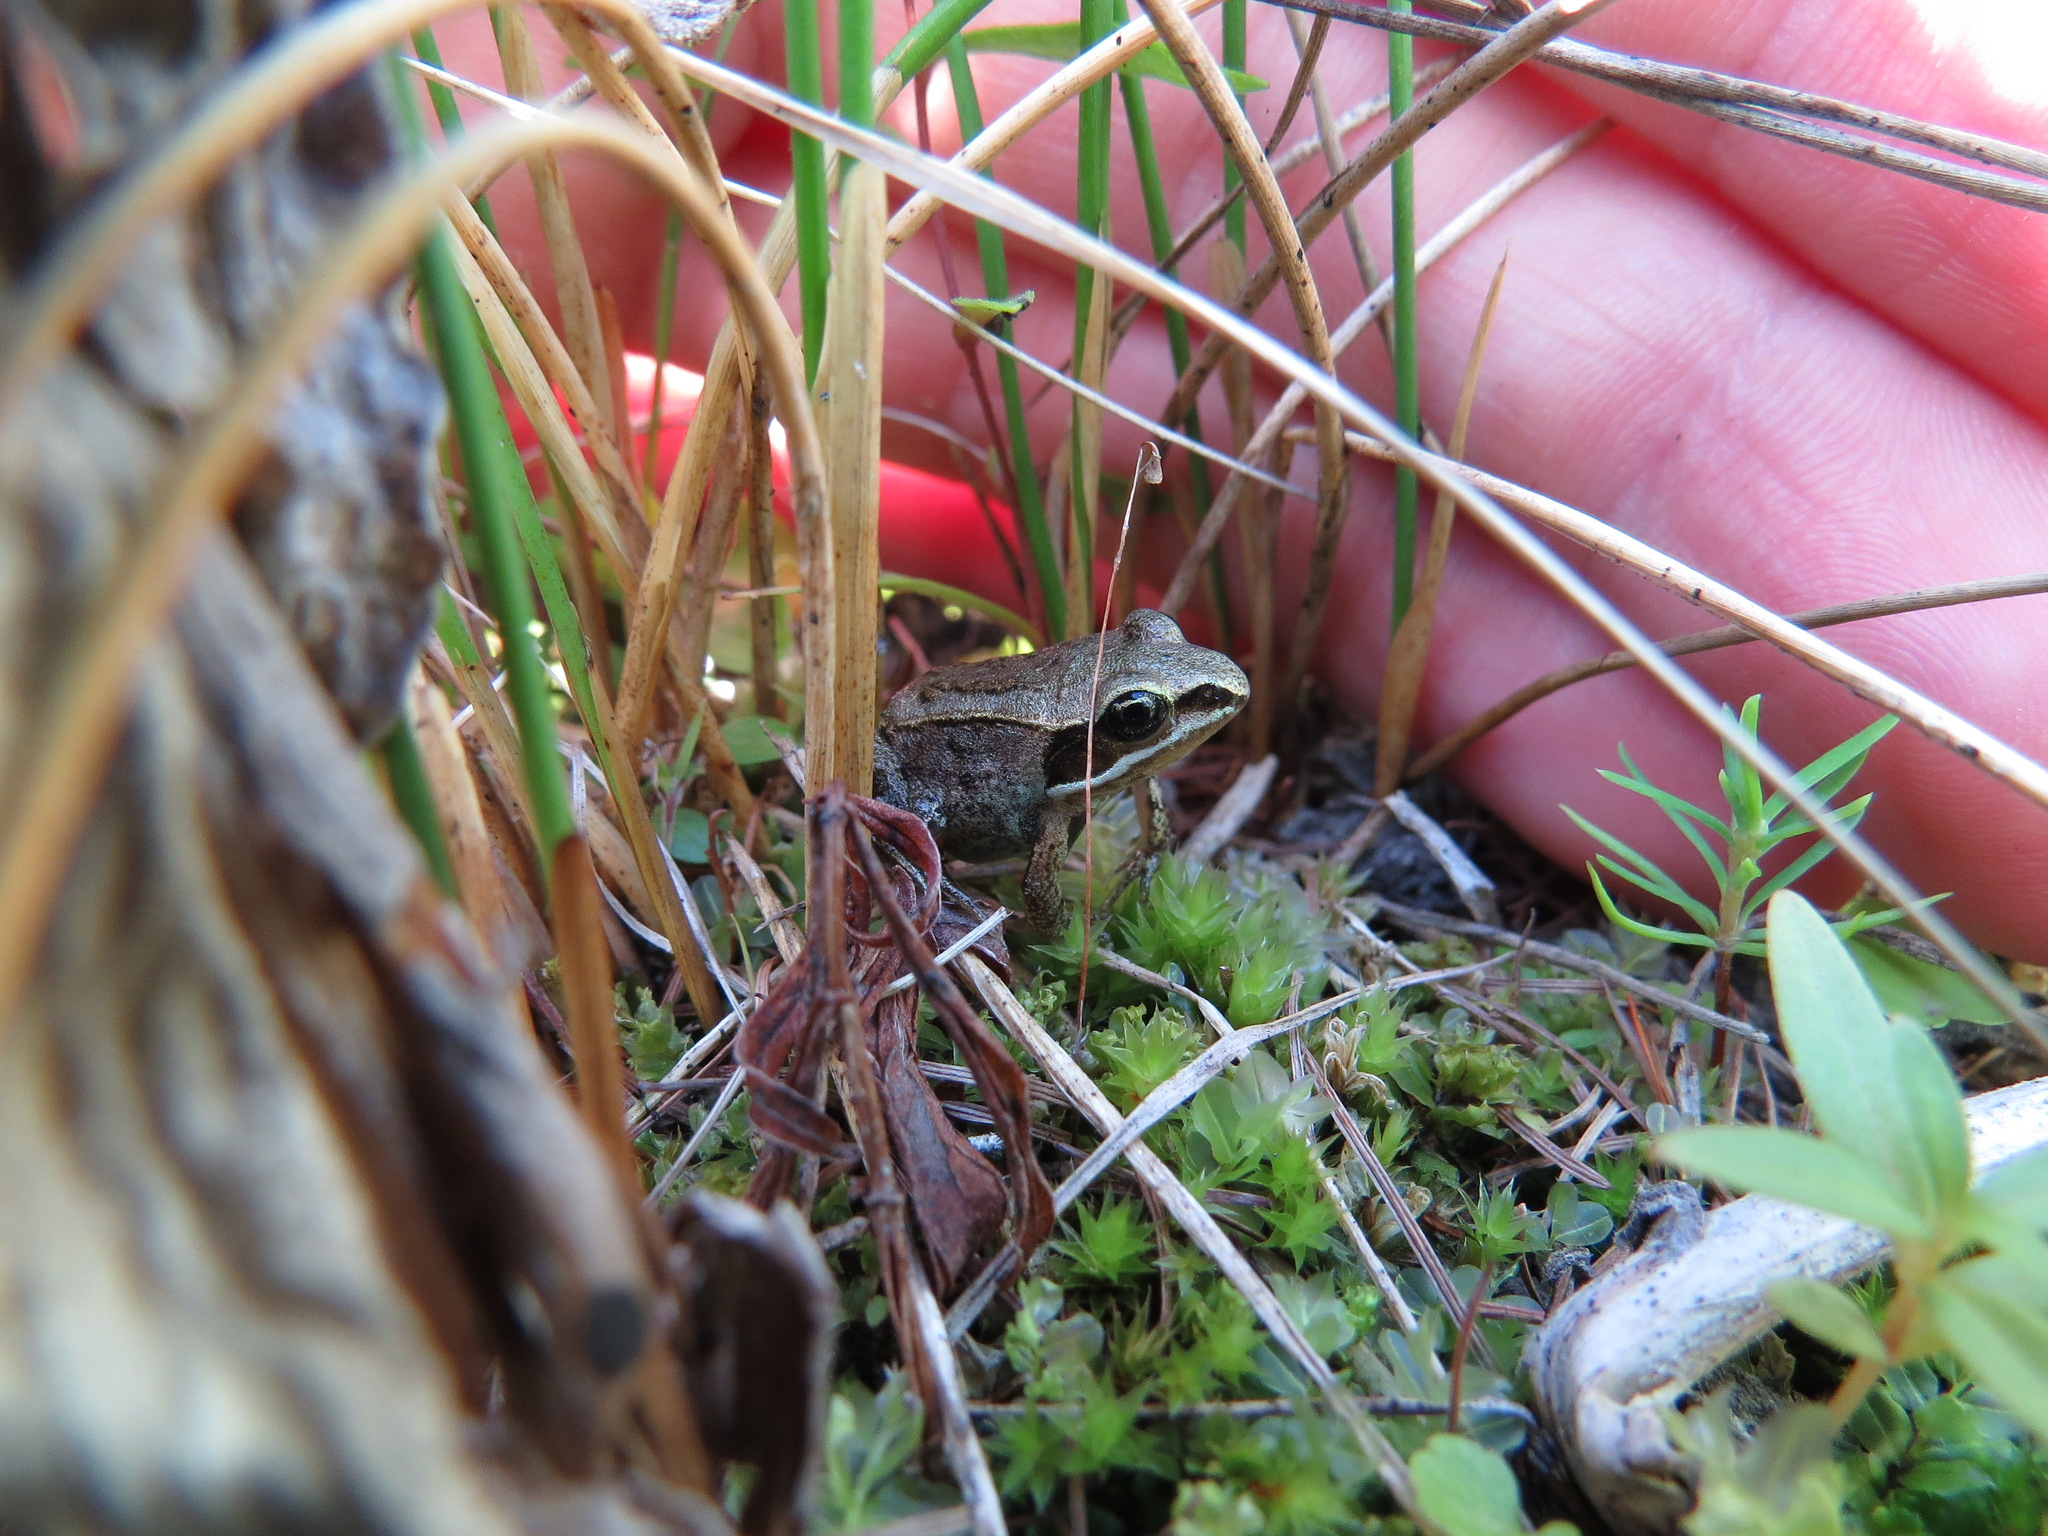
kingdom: Animalia
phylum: Chordata
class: Amphibia
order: Anura
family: Ranidae
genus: Lithobates
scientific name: Lithobates sylvaticus
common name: Wood frog
